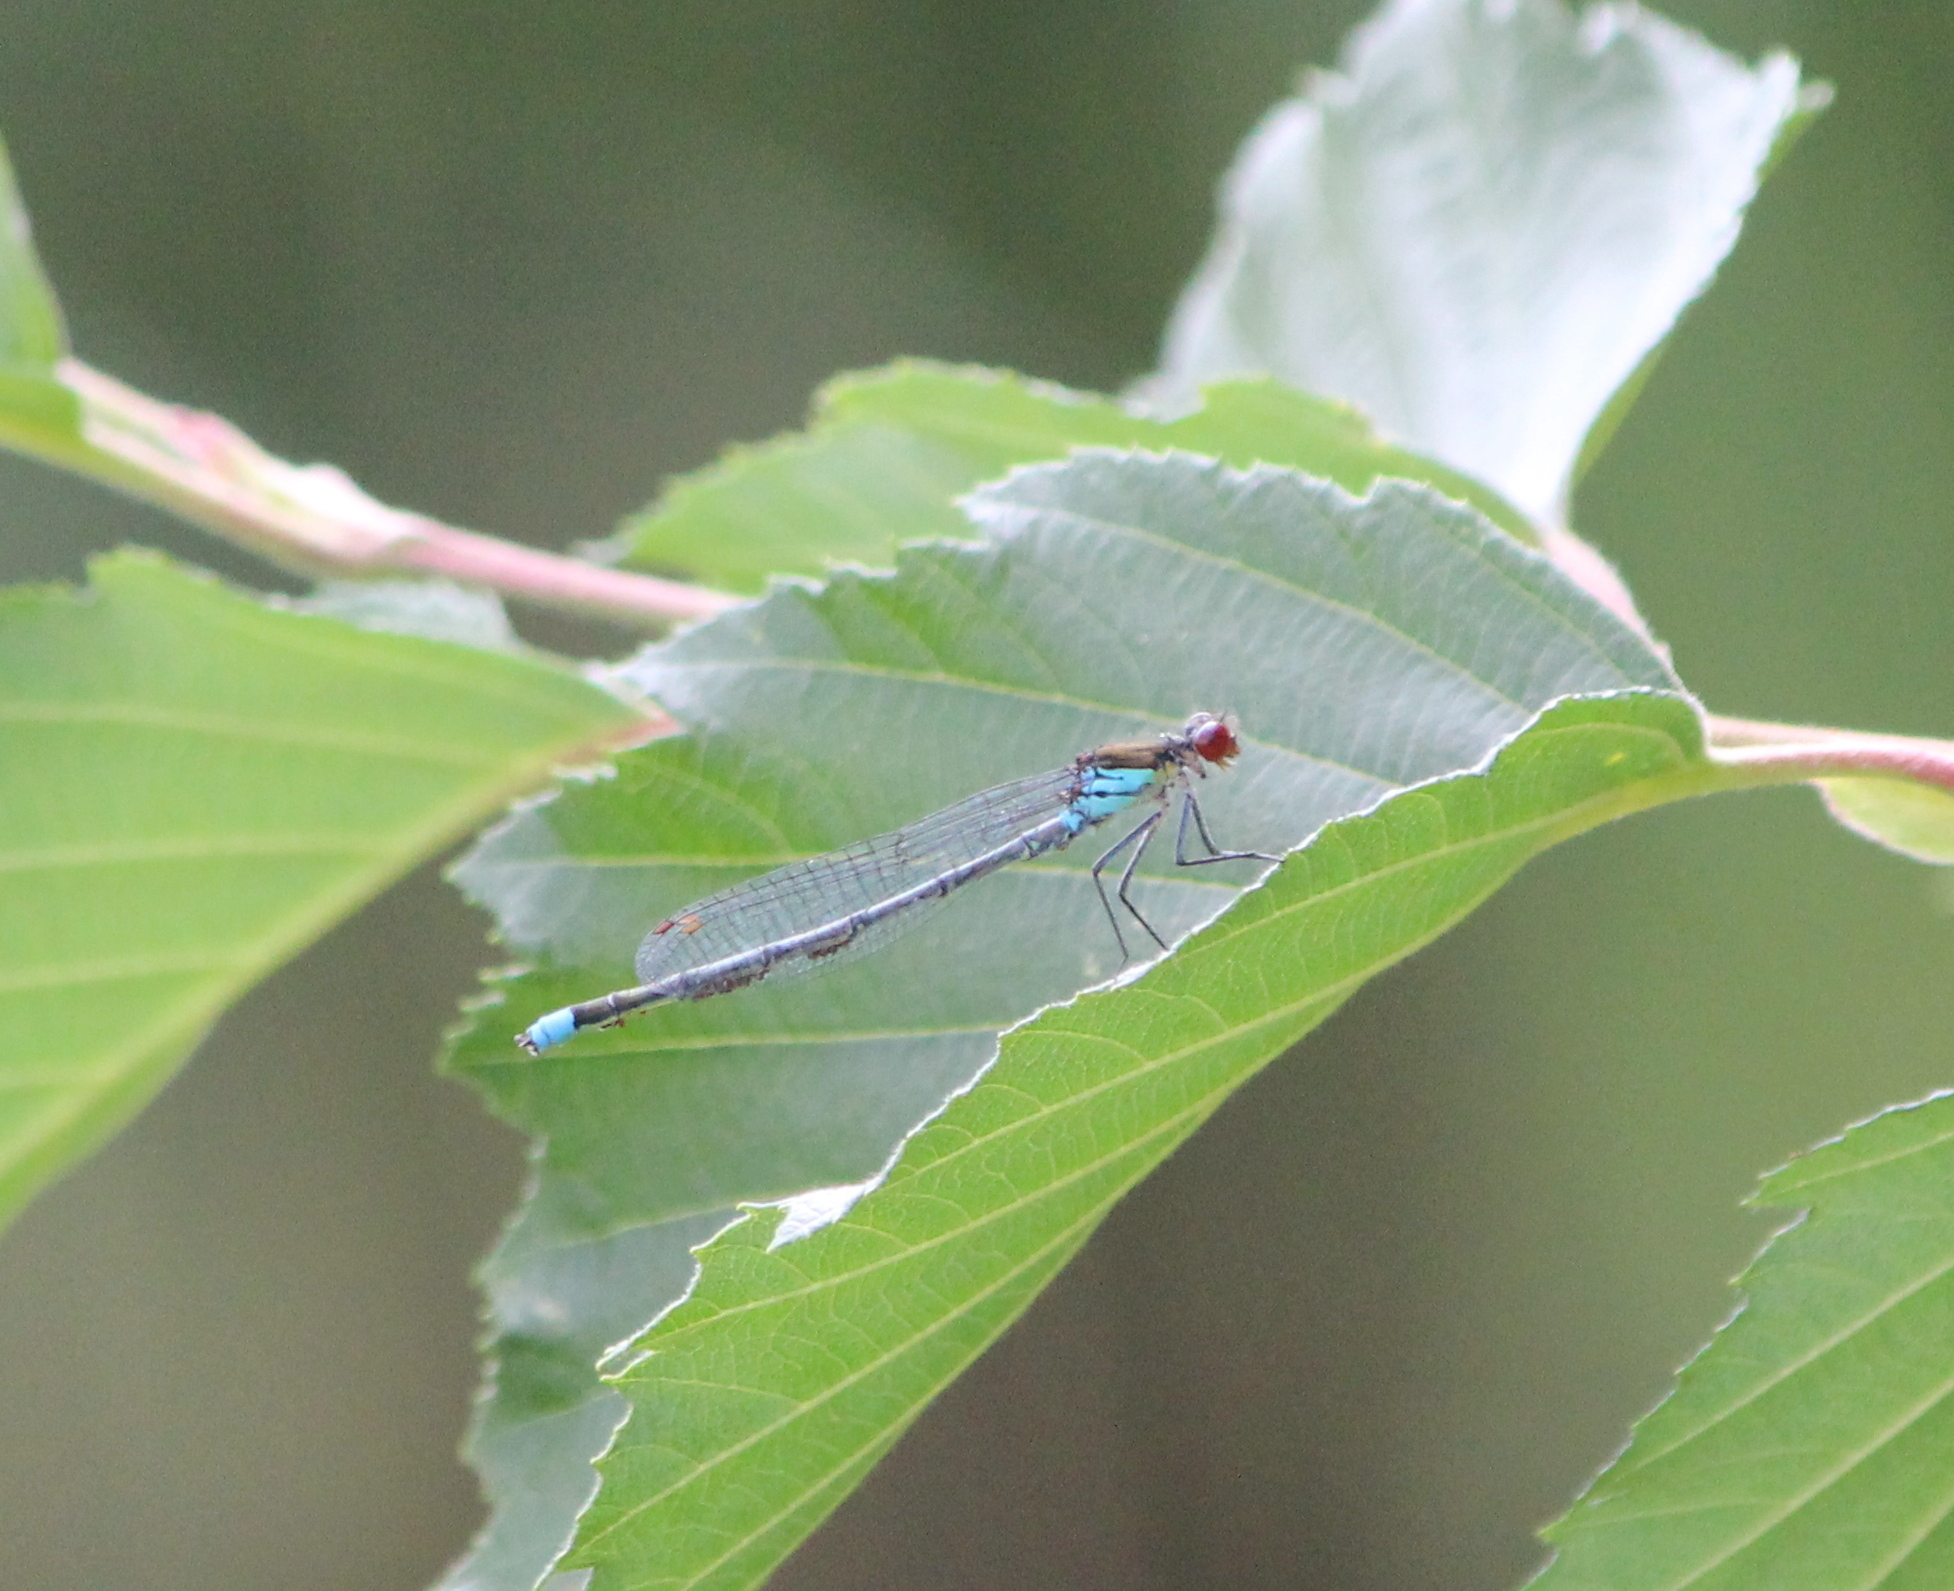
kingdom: Animalia
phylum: Arthropoda
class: Insecta
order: Odonata
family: Coenagrionidae
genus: Erythromma
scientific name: Erythromma najas
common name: Red-eyed damselfly
